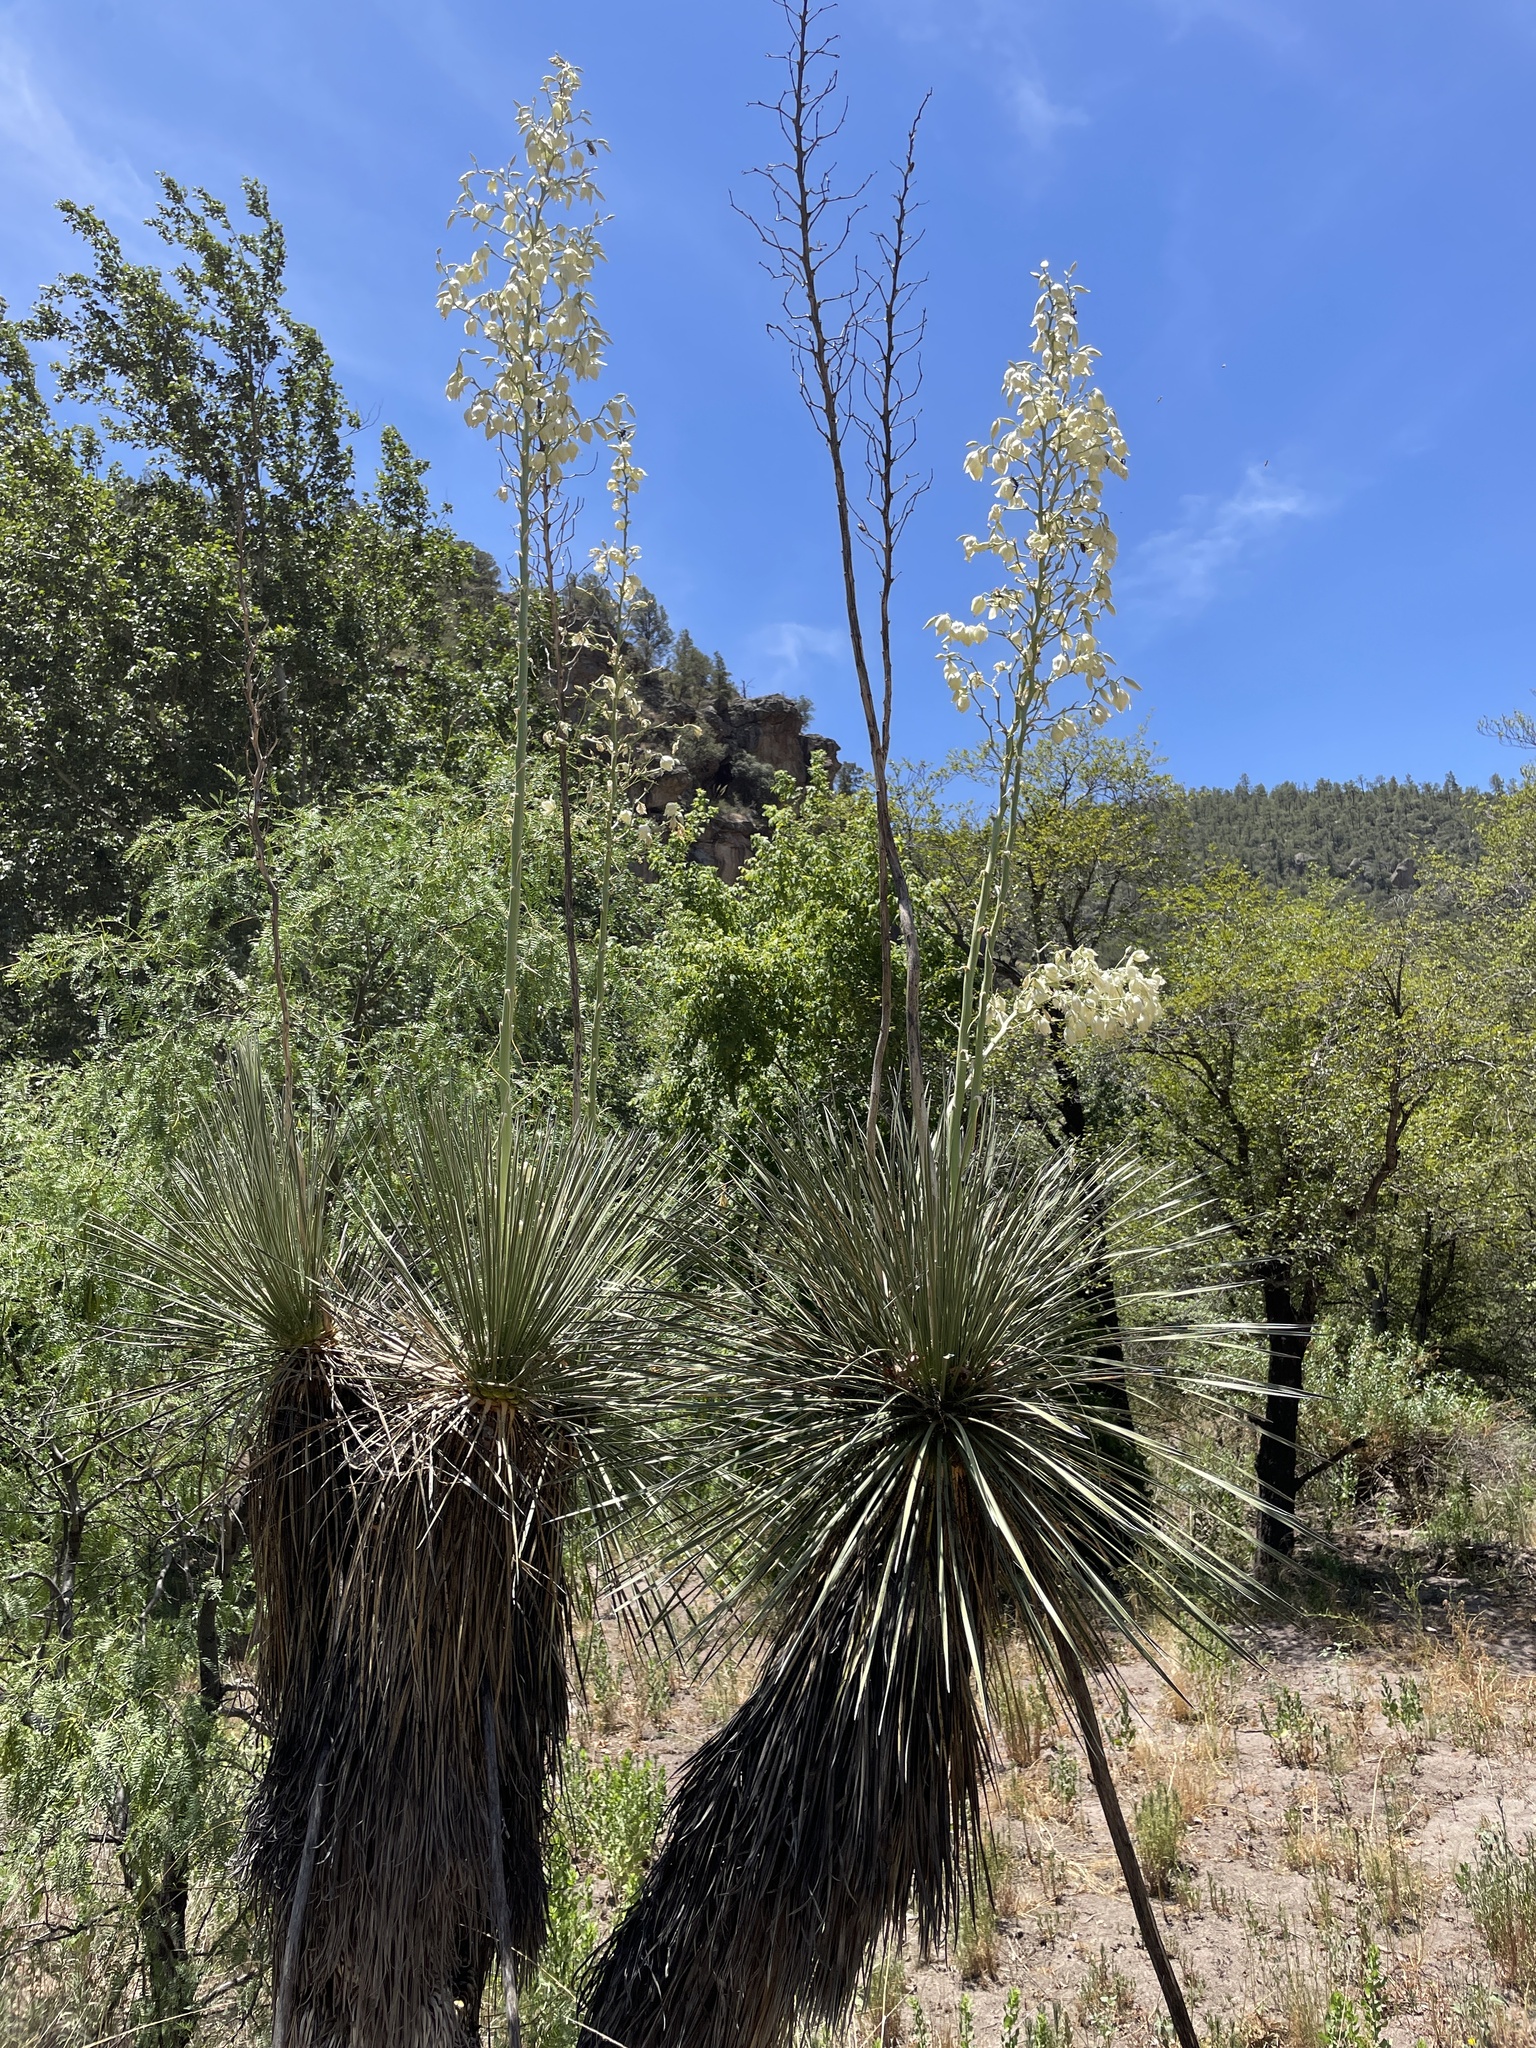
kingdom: Plantae
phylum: Tracheophyta
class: Liliopsida
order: Asparagales
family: Asparagaceae
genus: Yucca
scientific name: Yucca elata
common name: Palmella
